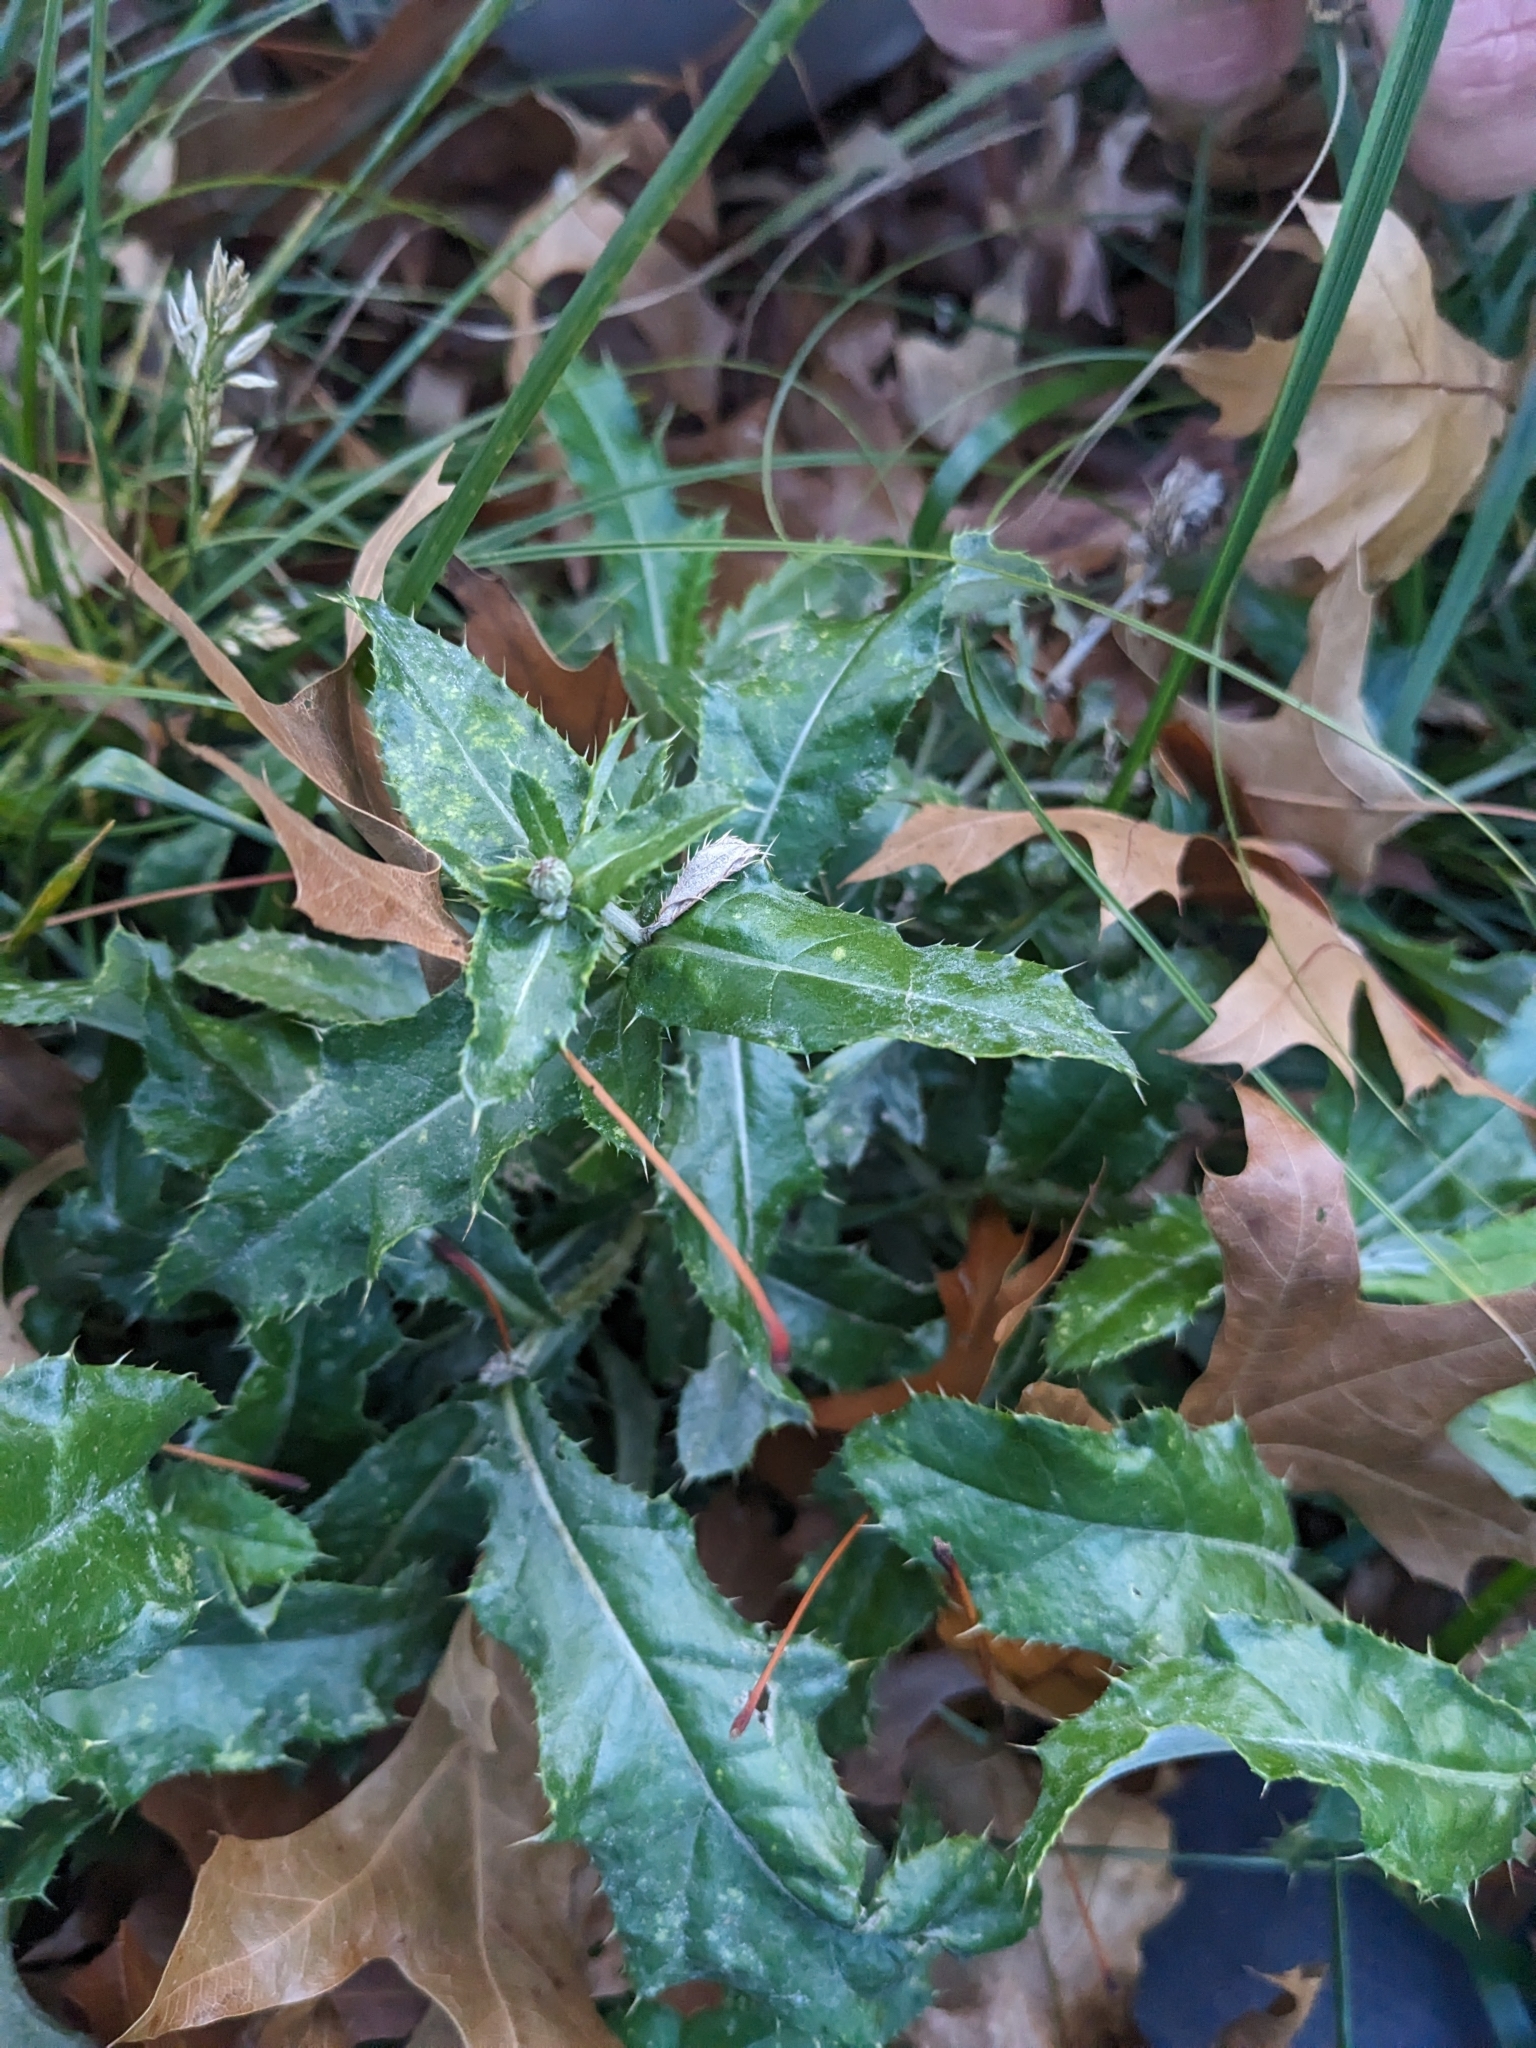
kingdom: Plantae
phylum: Tracheophyta
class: Magnoliopsida
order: Asterales
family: Asteraceae
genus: Cirsium
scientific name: Cirsium arvense
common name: Creeping thistle
